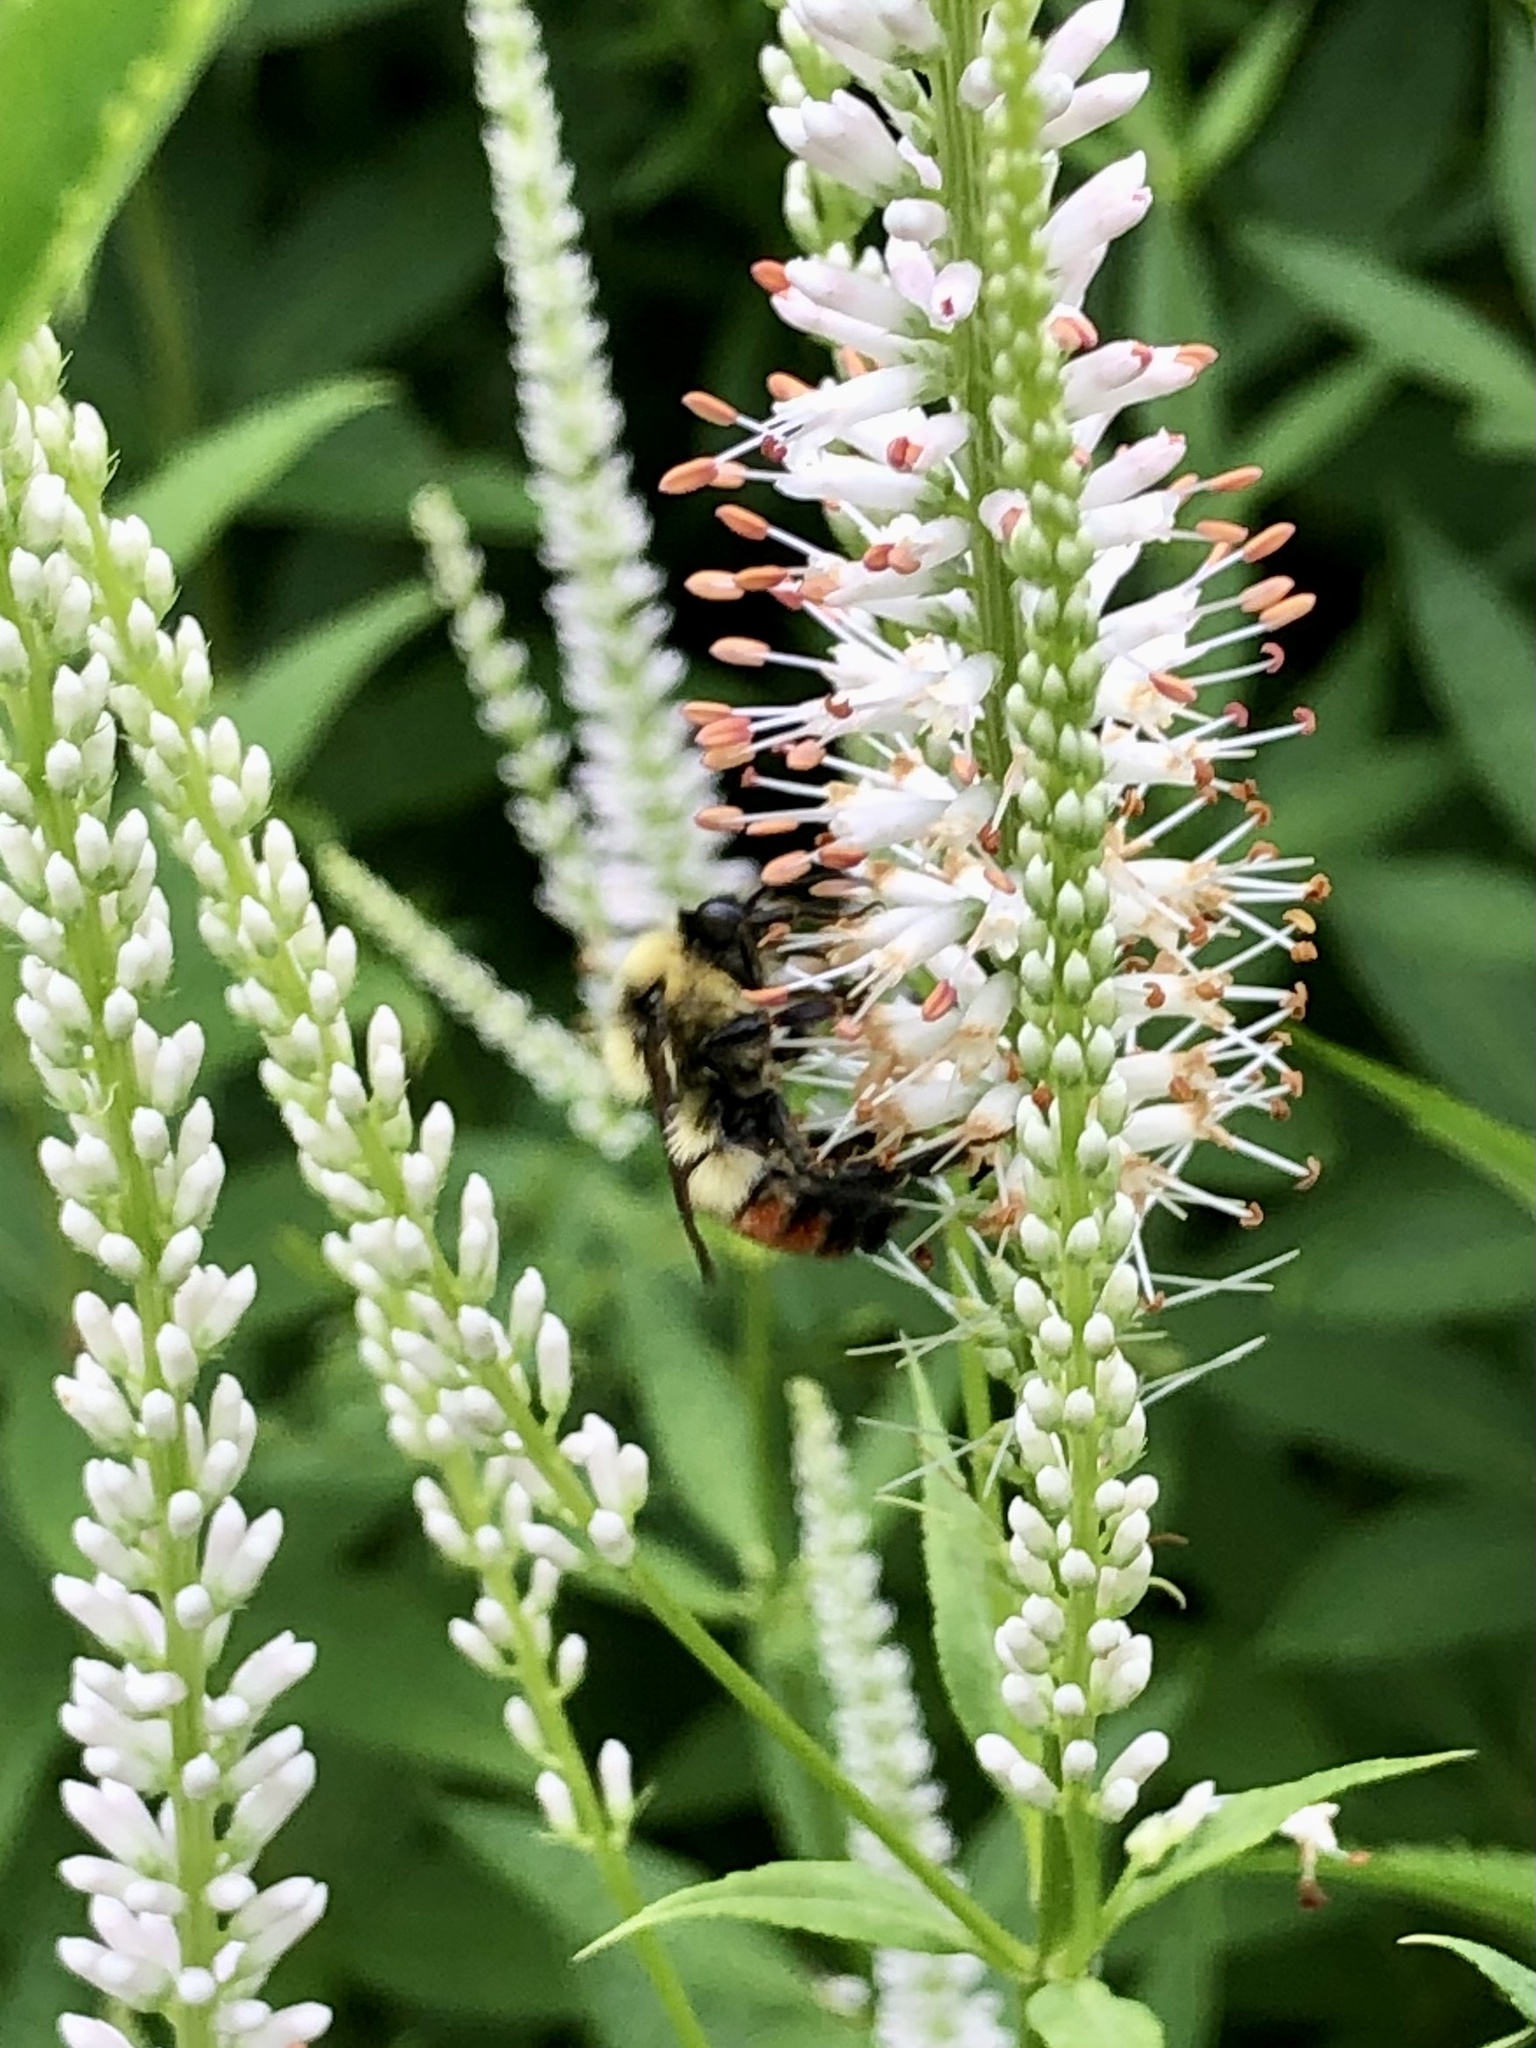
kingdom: Animalia
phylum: Arthropoda
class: Insecta
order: Hymenoptera
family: Apidae
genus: Bombus
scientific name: Bombus rufocinctus
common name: Red-belted bumble bee
